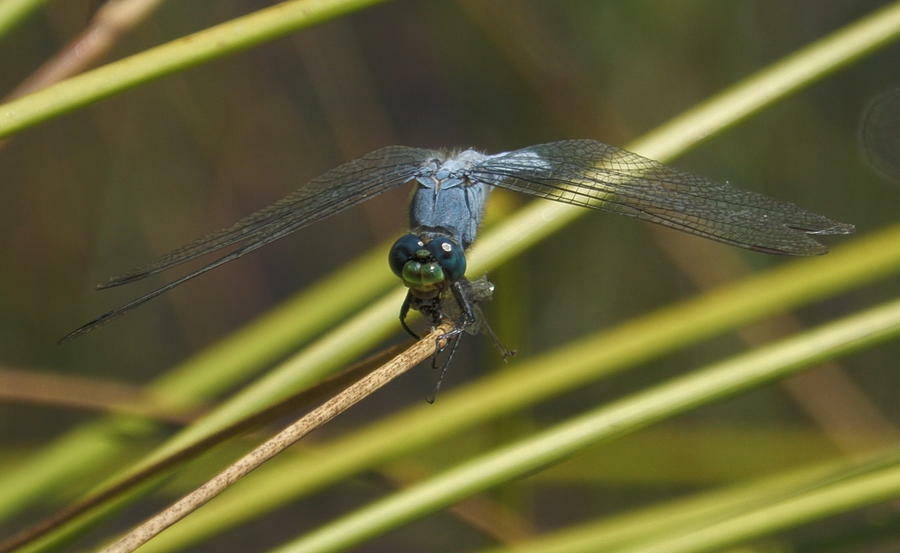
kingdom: Animalia
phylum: Arthropoda
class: Insecta
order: Odonata
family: Libellulidae
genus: Erythemis
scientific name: Erythemis collocata
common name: Western pondhawk
